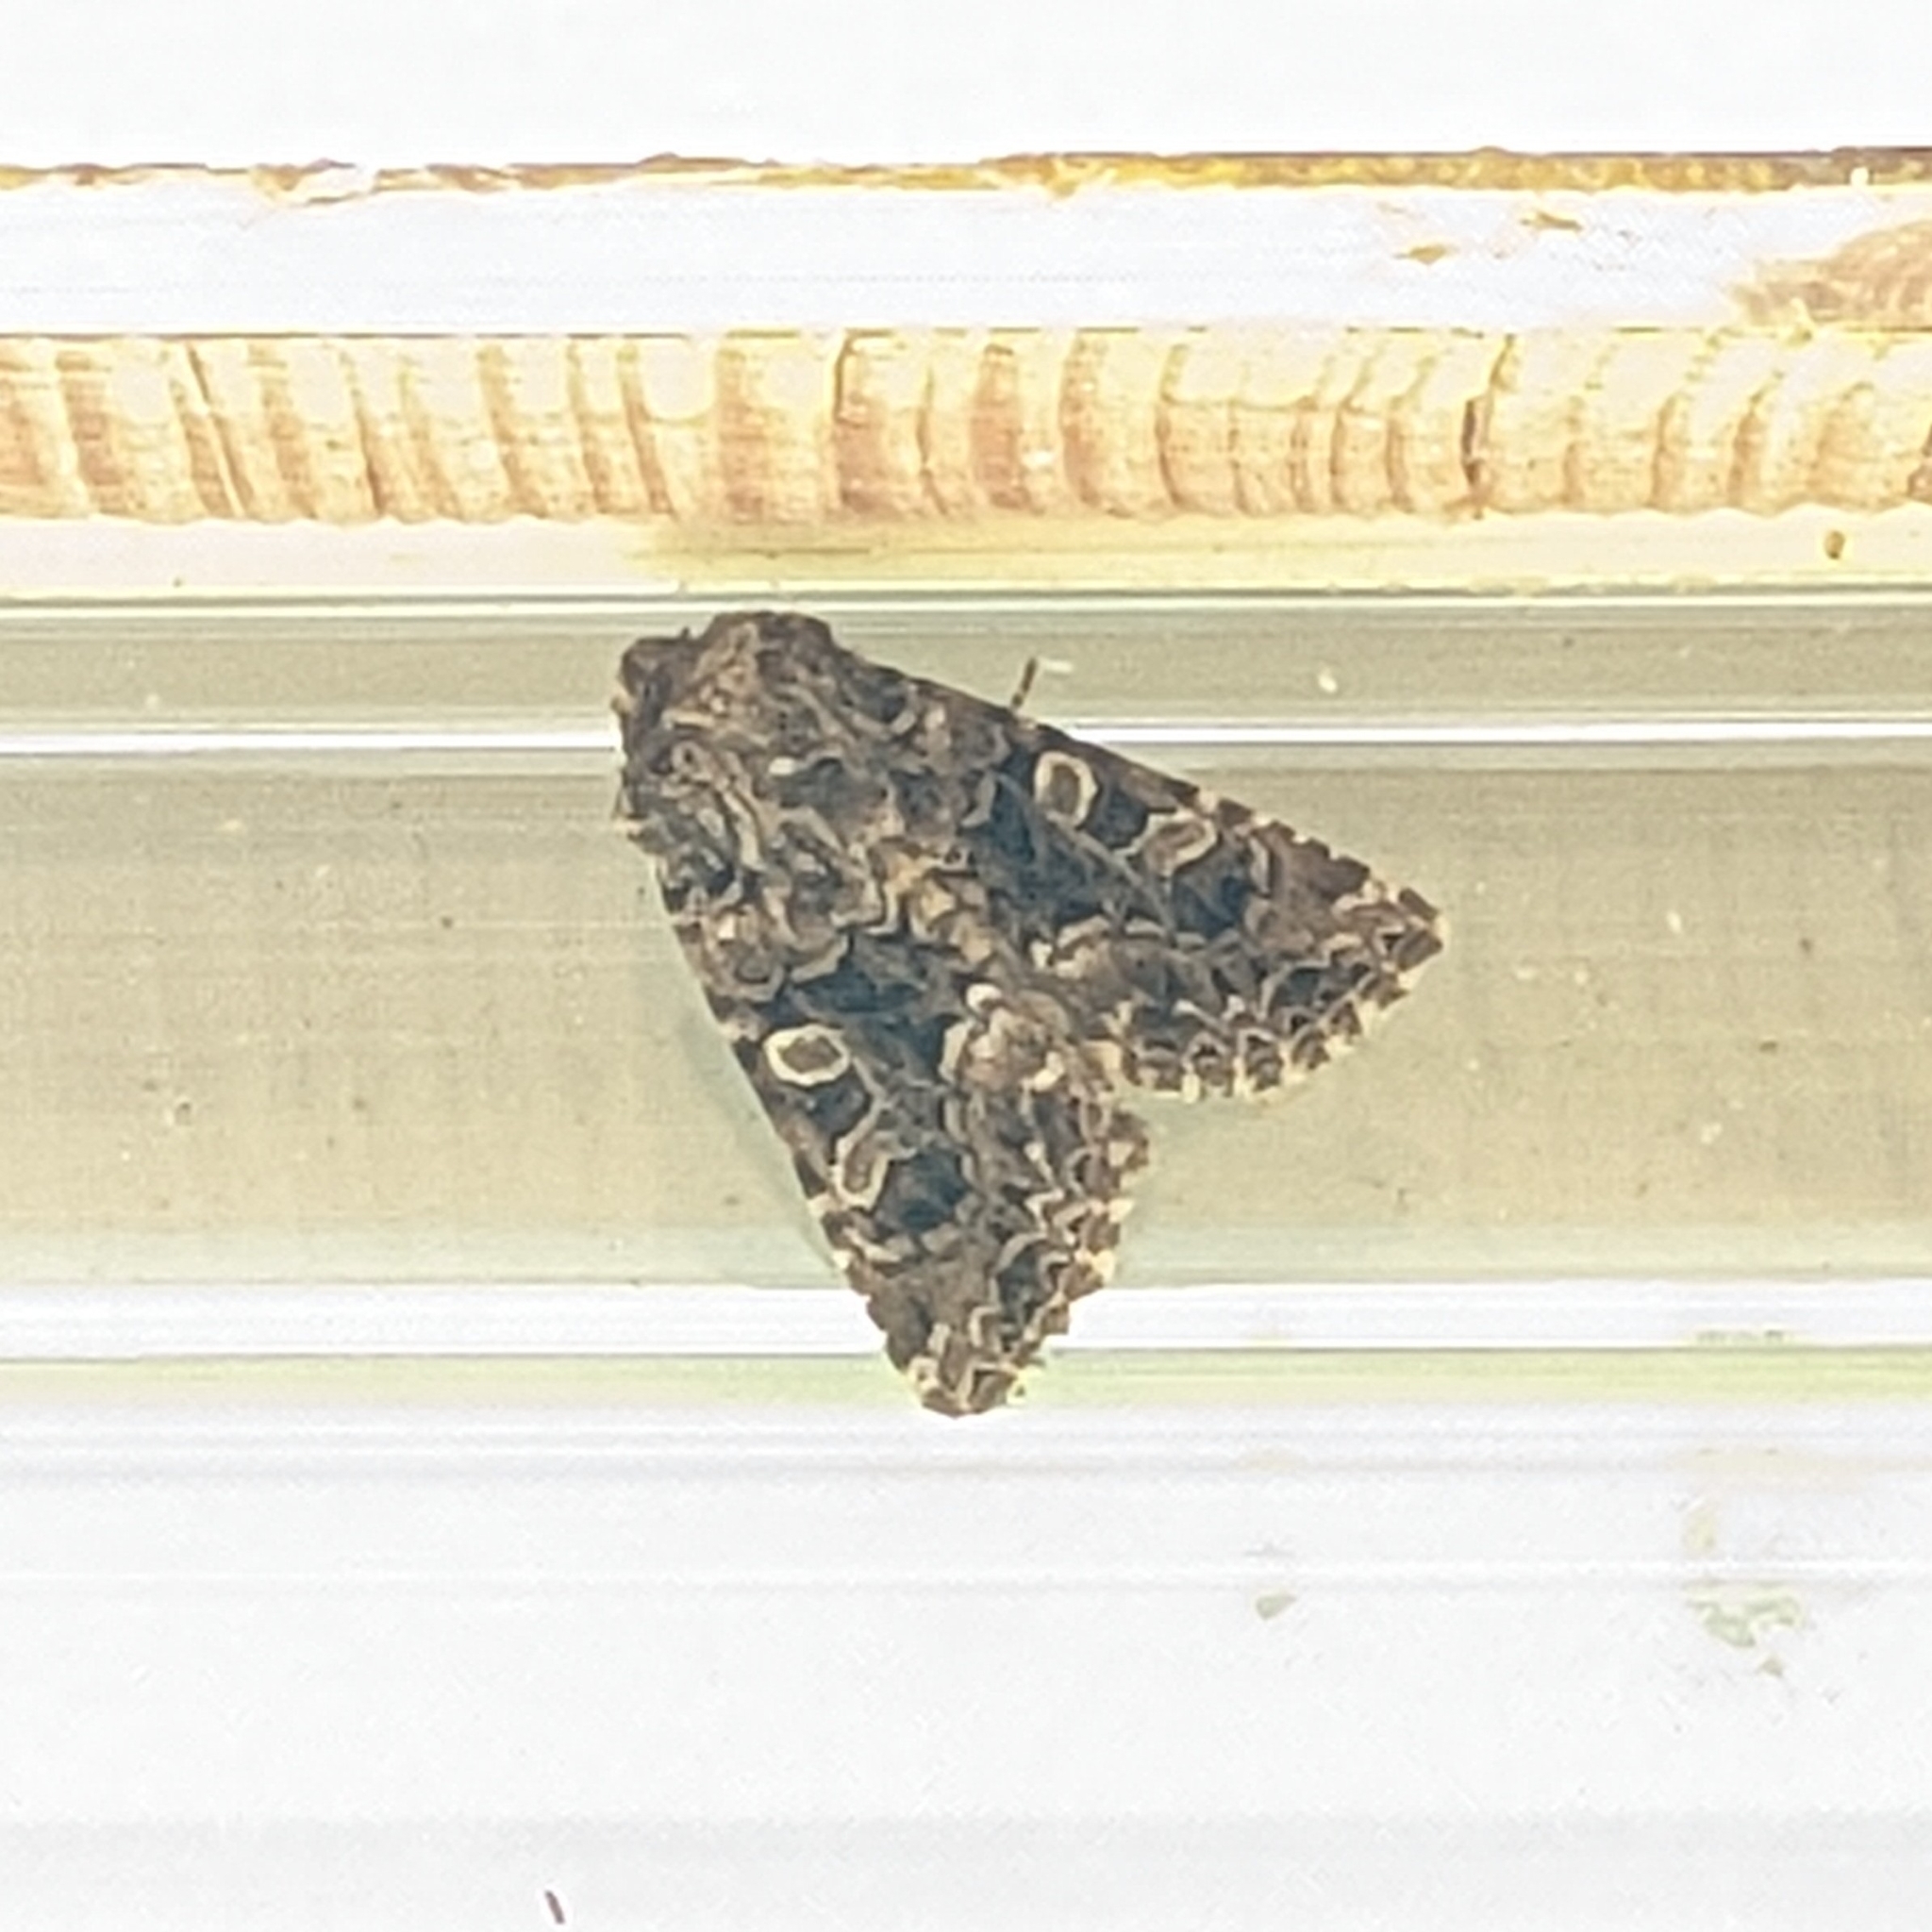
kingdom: Animalia
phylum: Arthropoda
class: Insecta
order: Lepidoptera
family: Noctuidae
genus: Hadena
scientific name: Hadena perplexa
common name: Tawny shears
